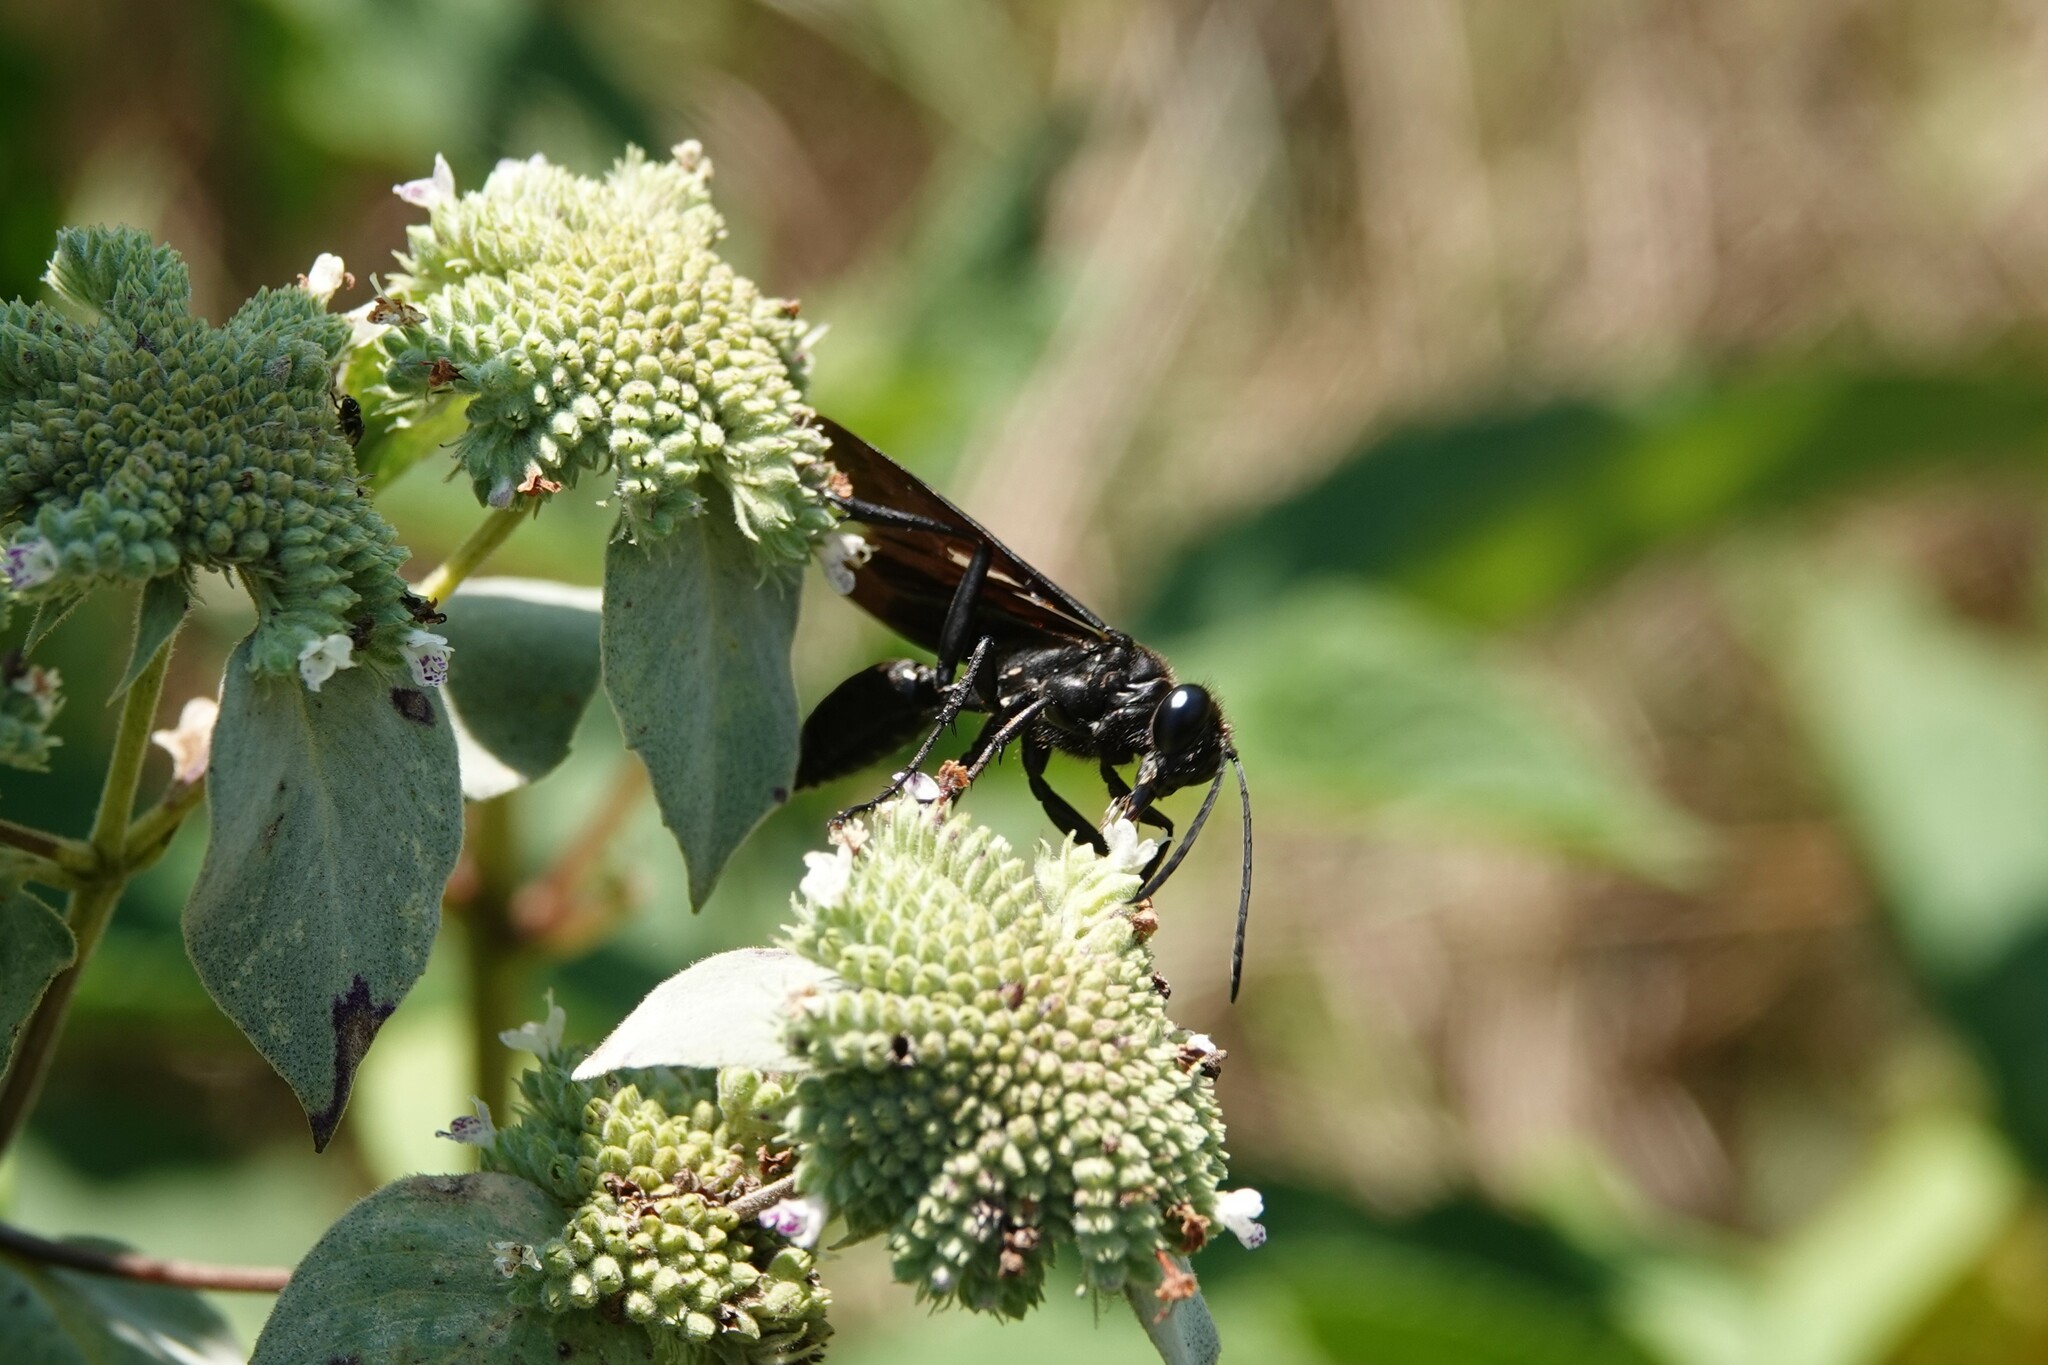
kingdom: Animalia
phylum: Arthropoda
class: Insecta
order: Hymenoptera
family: Sphecidae
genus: Sphex
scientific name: Sphex pensylvanicus
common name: Great black digger wasp
